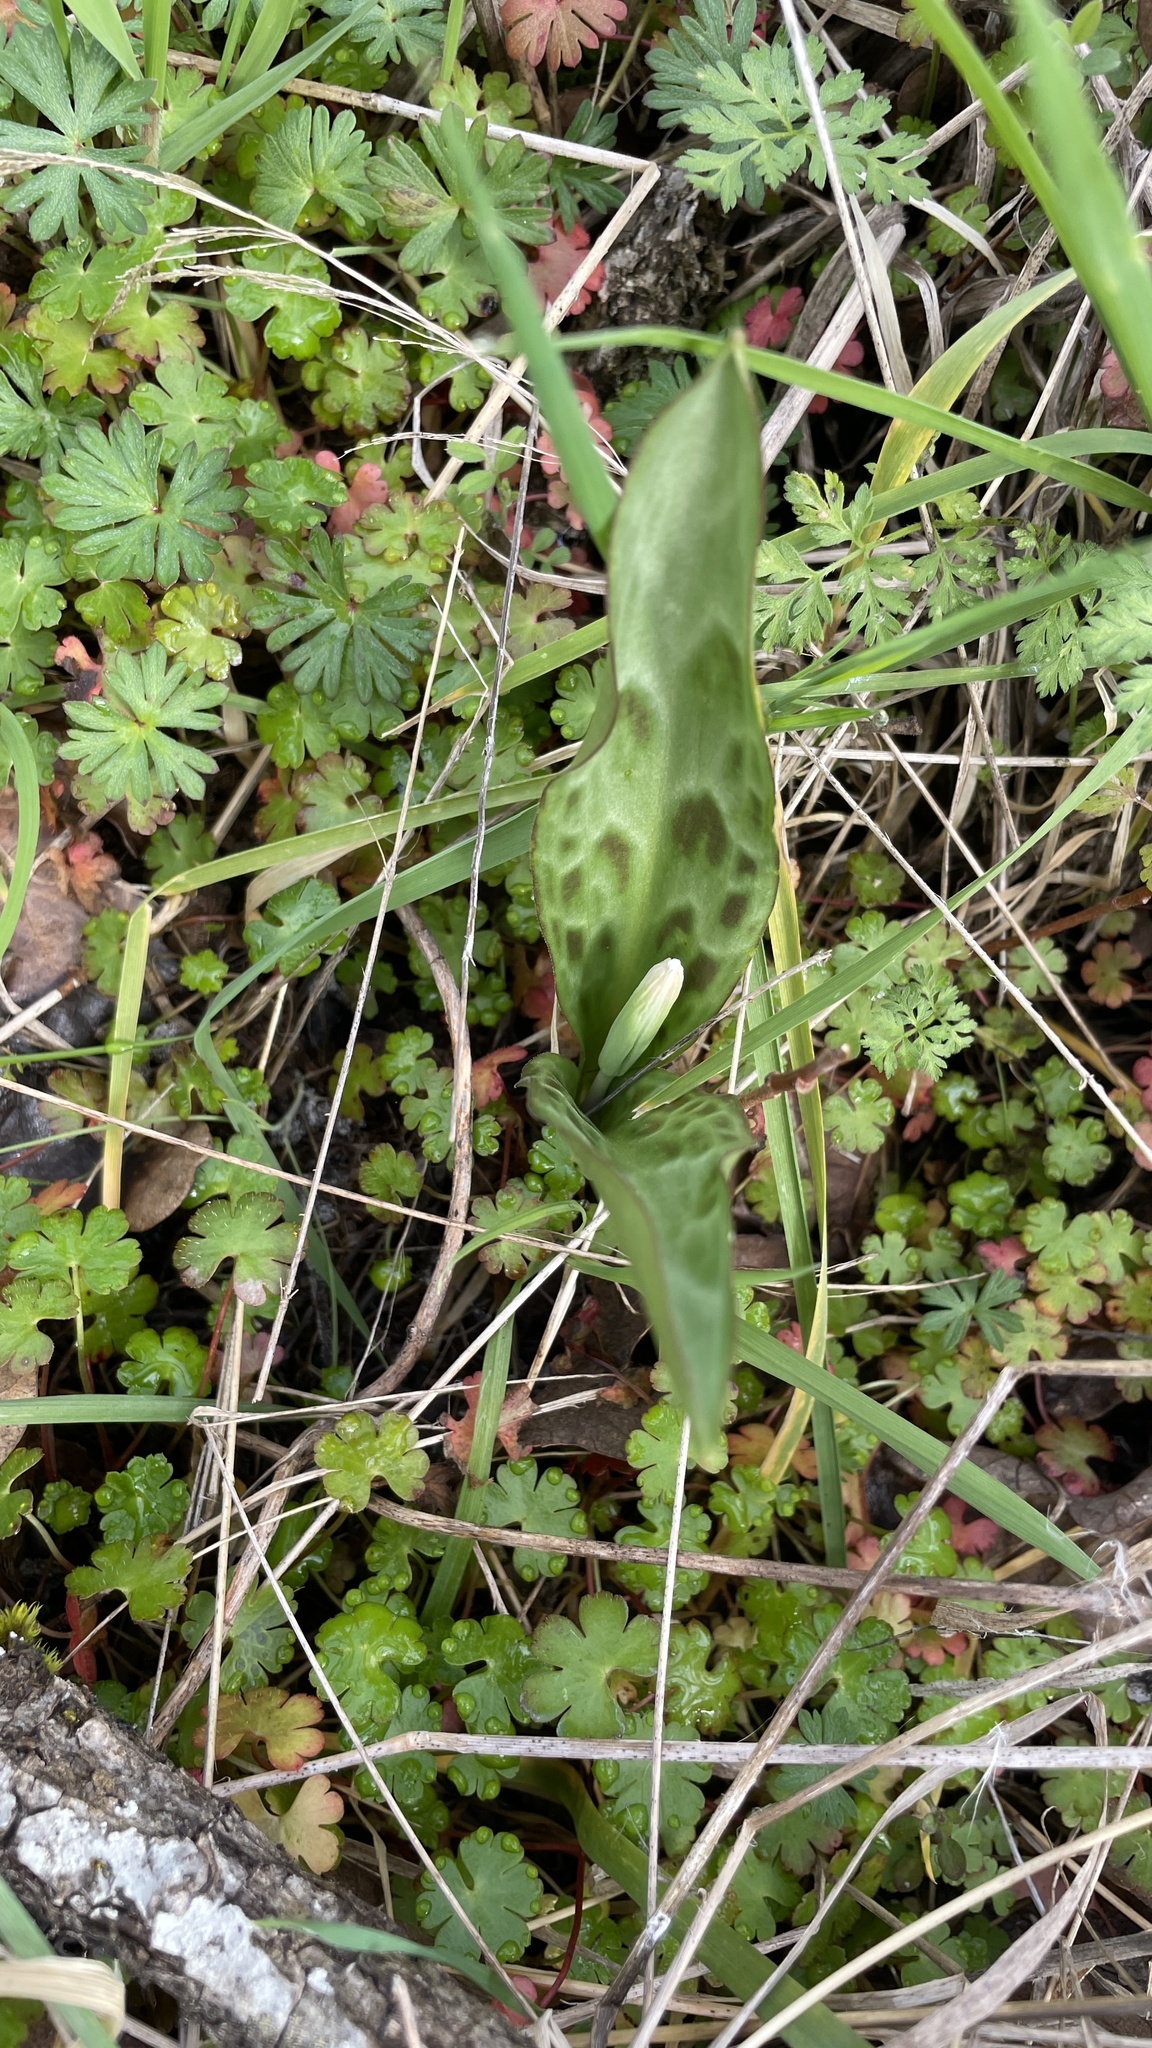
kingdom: Plantae
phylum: Tracheophyta
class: Liliopsida
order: Liliales
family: Liliaceae
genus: Erythronium
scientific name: Erythronium oregonum
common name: Giant adder's-tongue
